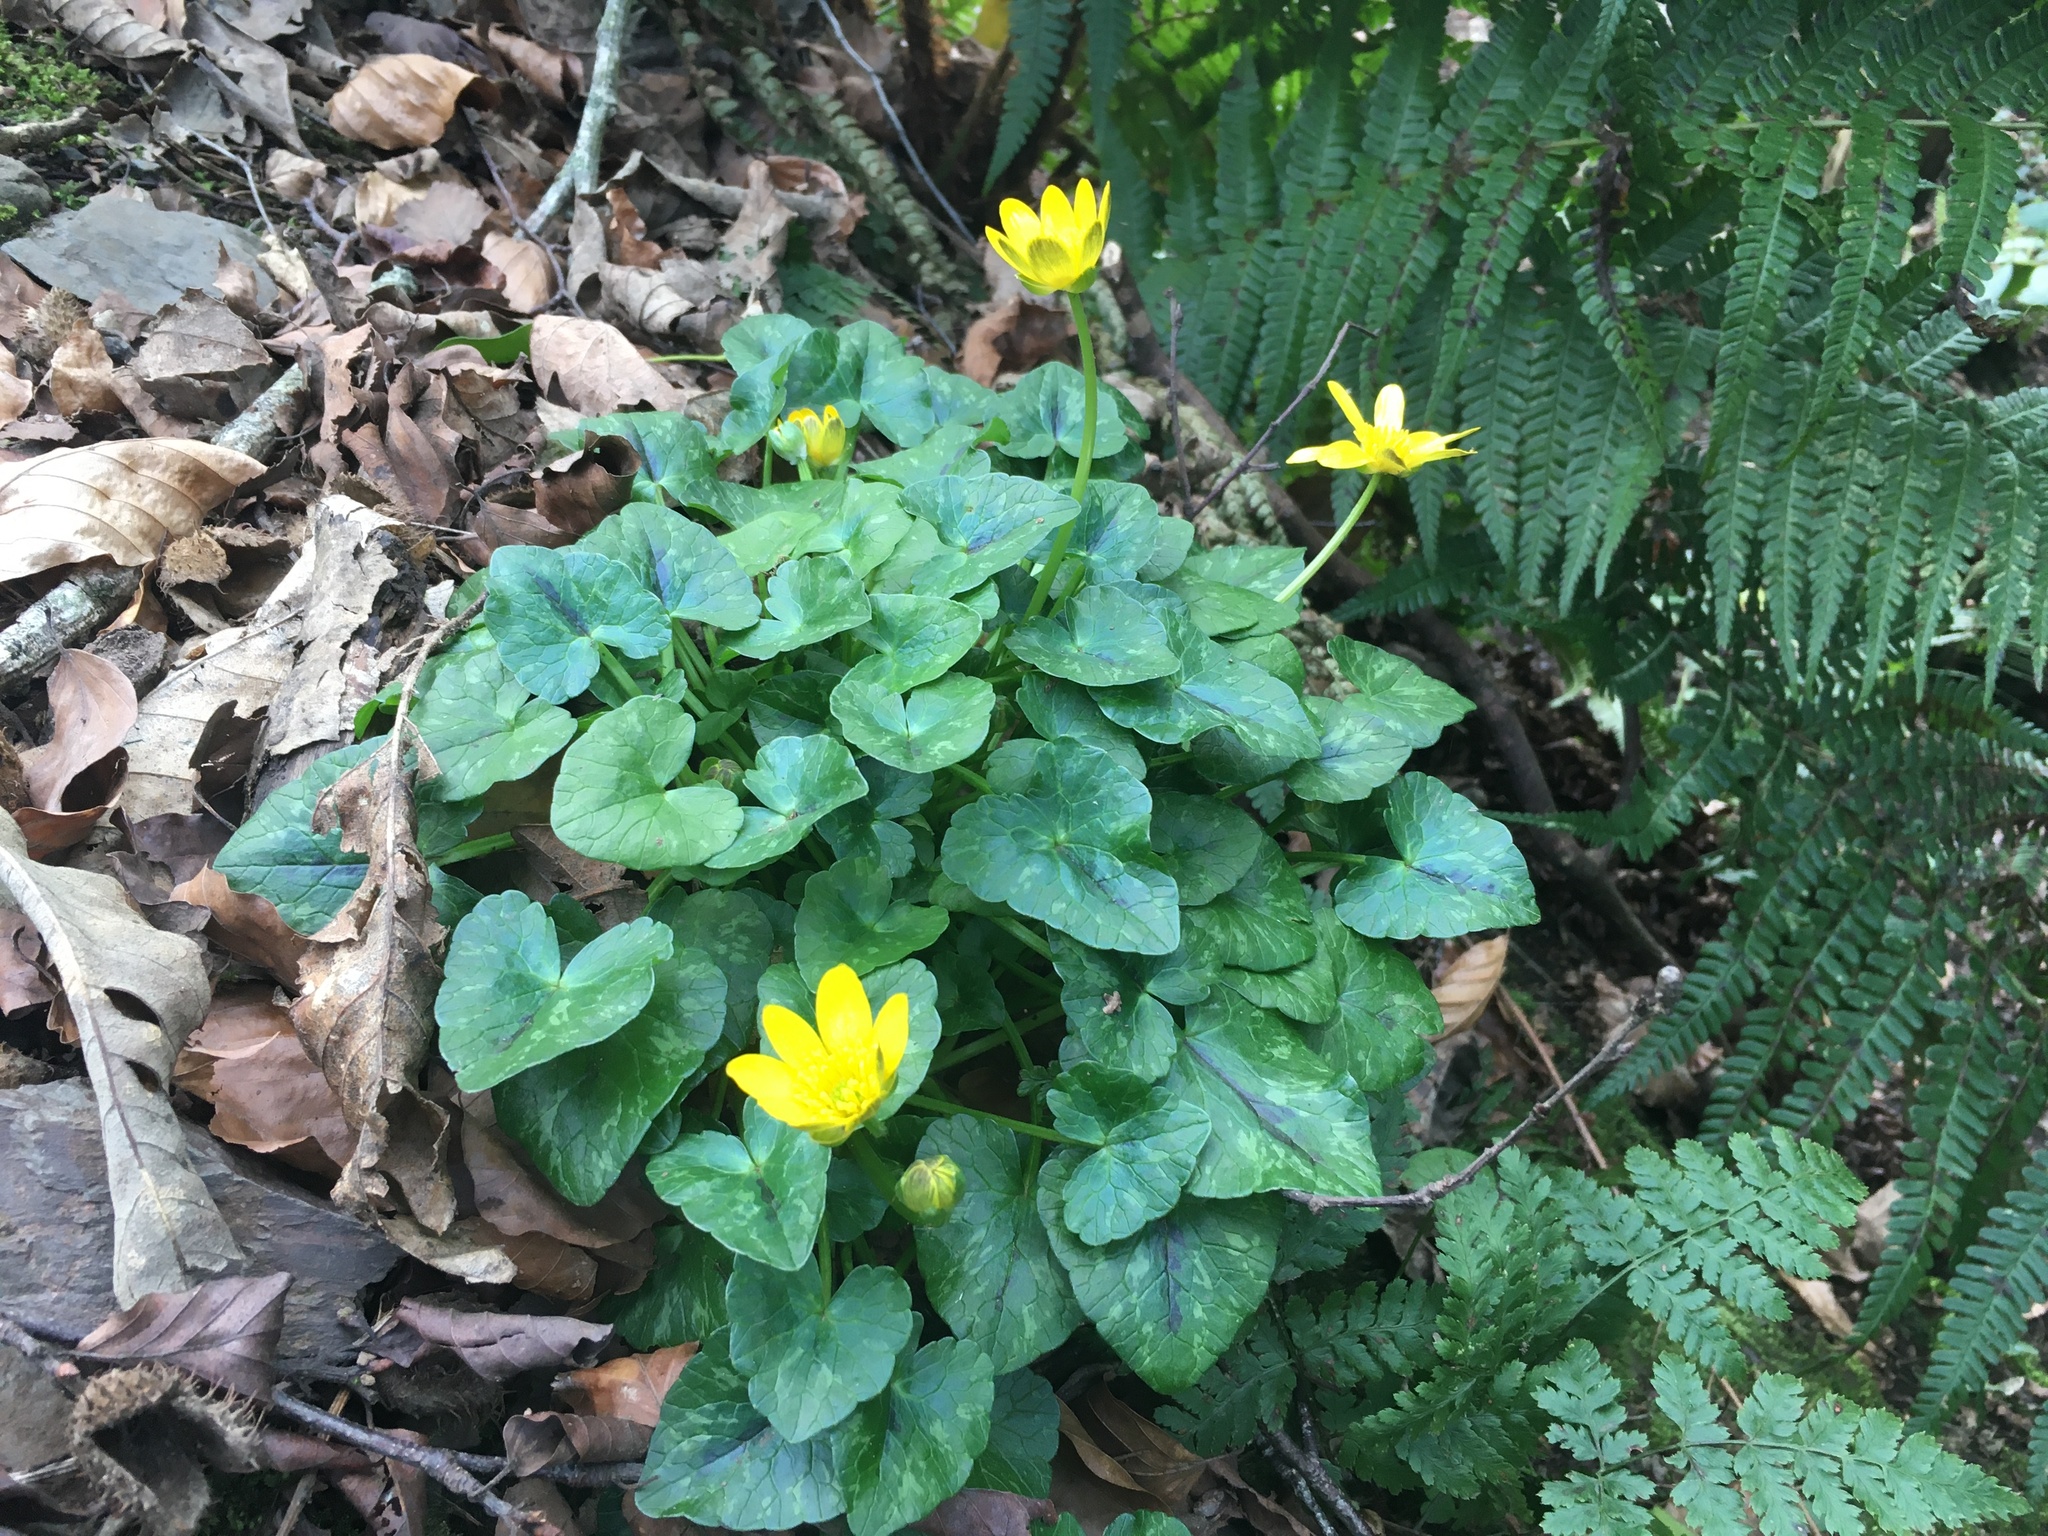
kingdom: Plantae
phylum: Tracheophyta
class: Magnoliopsida
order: Ranunculales
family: Ranunculaceae
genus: Ficaria
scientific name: Ficaria verna
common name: Lesser celandine
